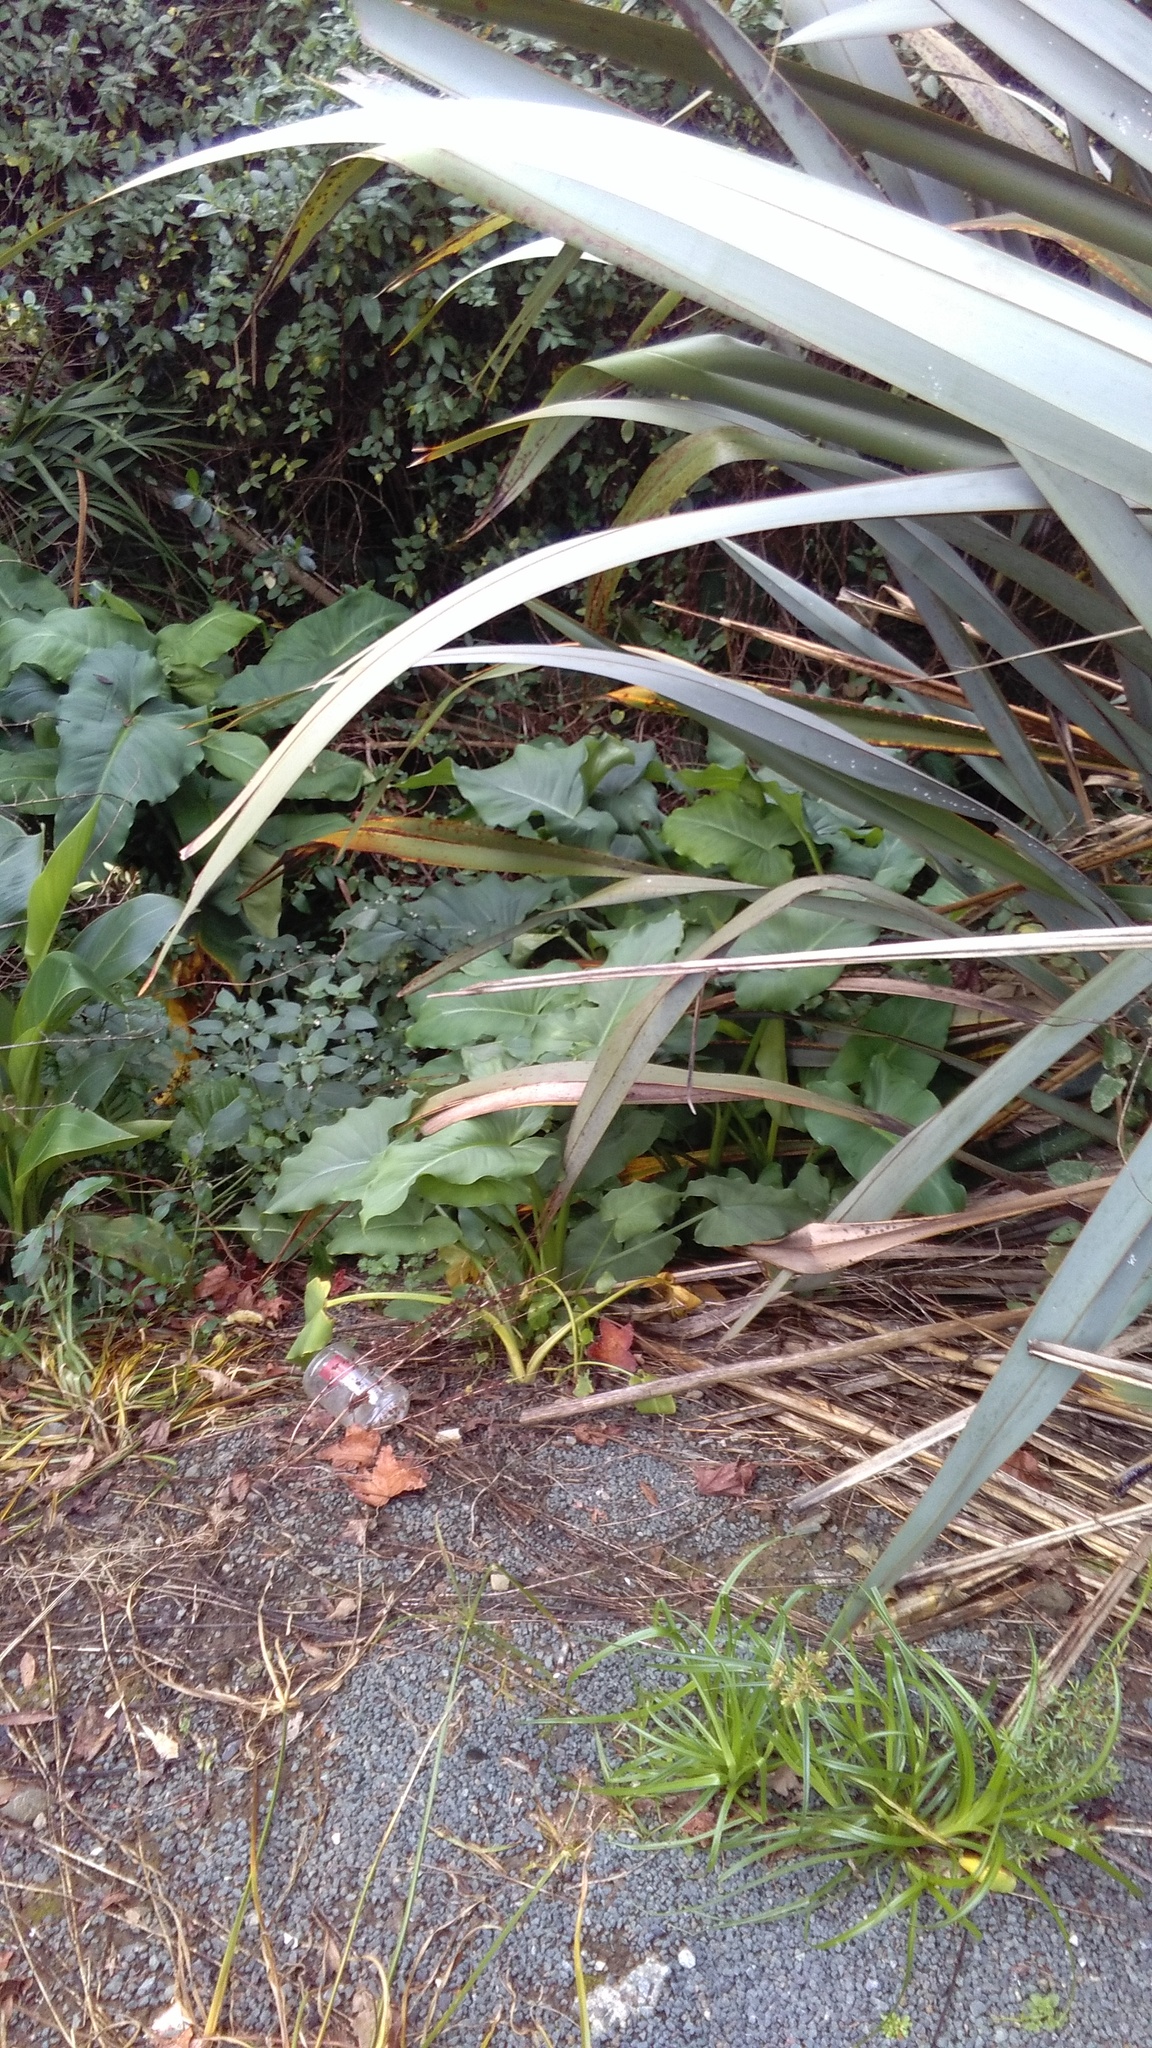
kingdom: Plantae
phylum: Tracheophyta
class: Liliopsida
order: Asparagales
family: Asphodelaceae
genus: Phormium
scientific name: Phormium tenax
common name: New zealand flax
